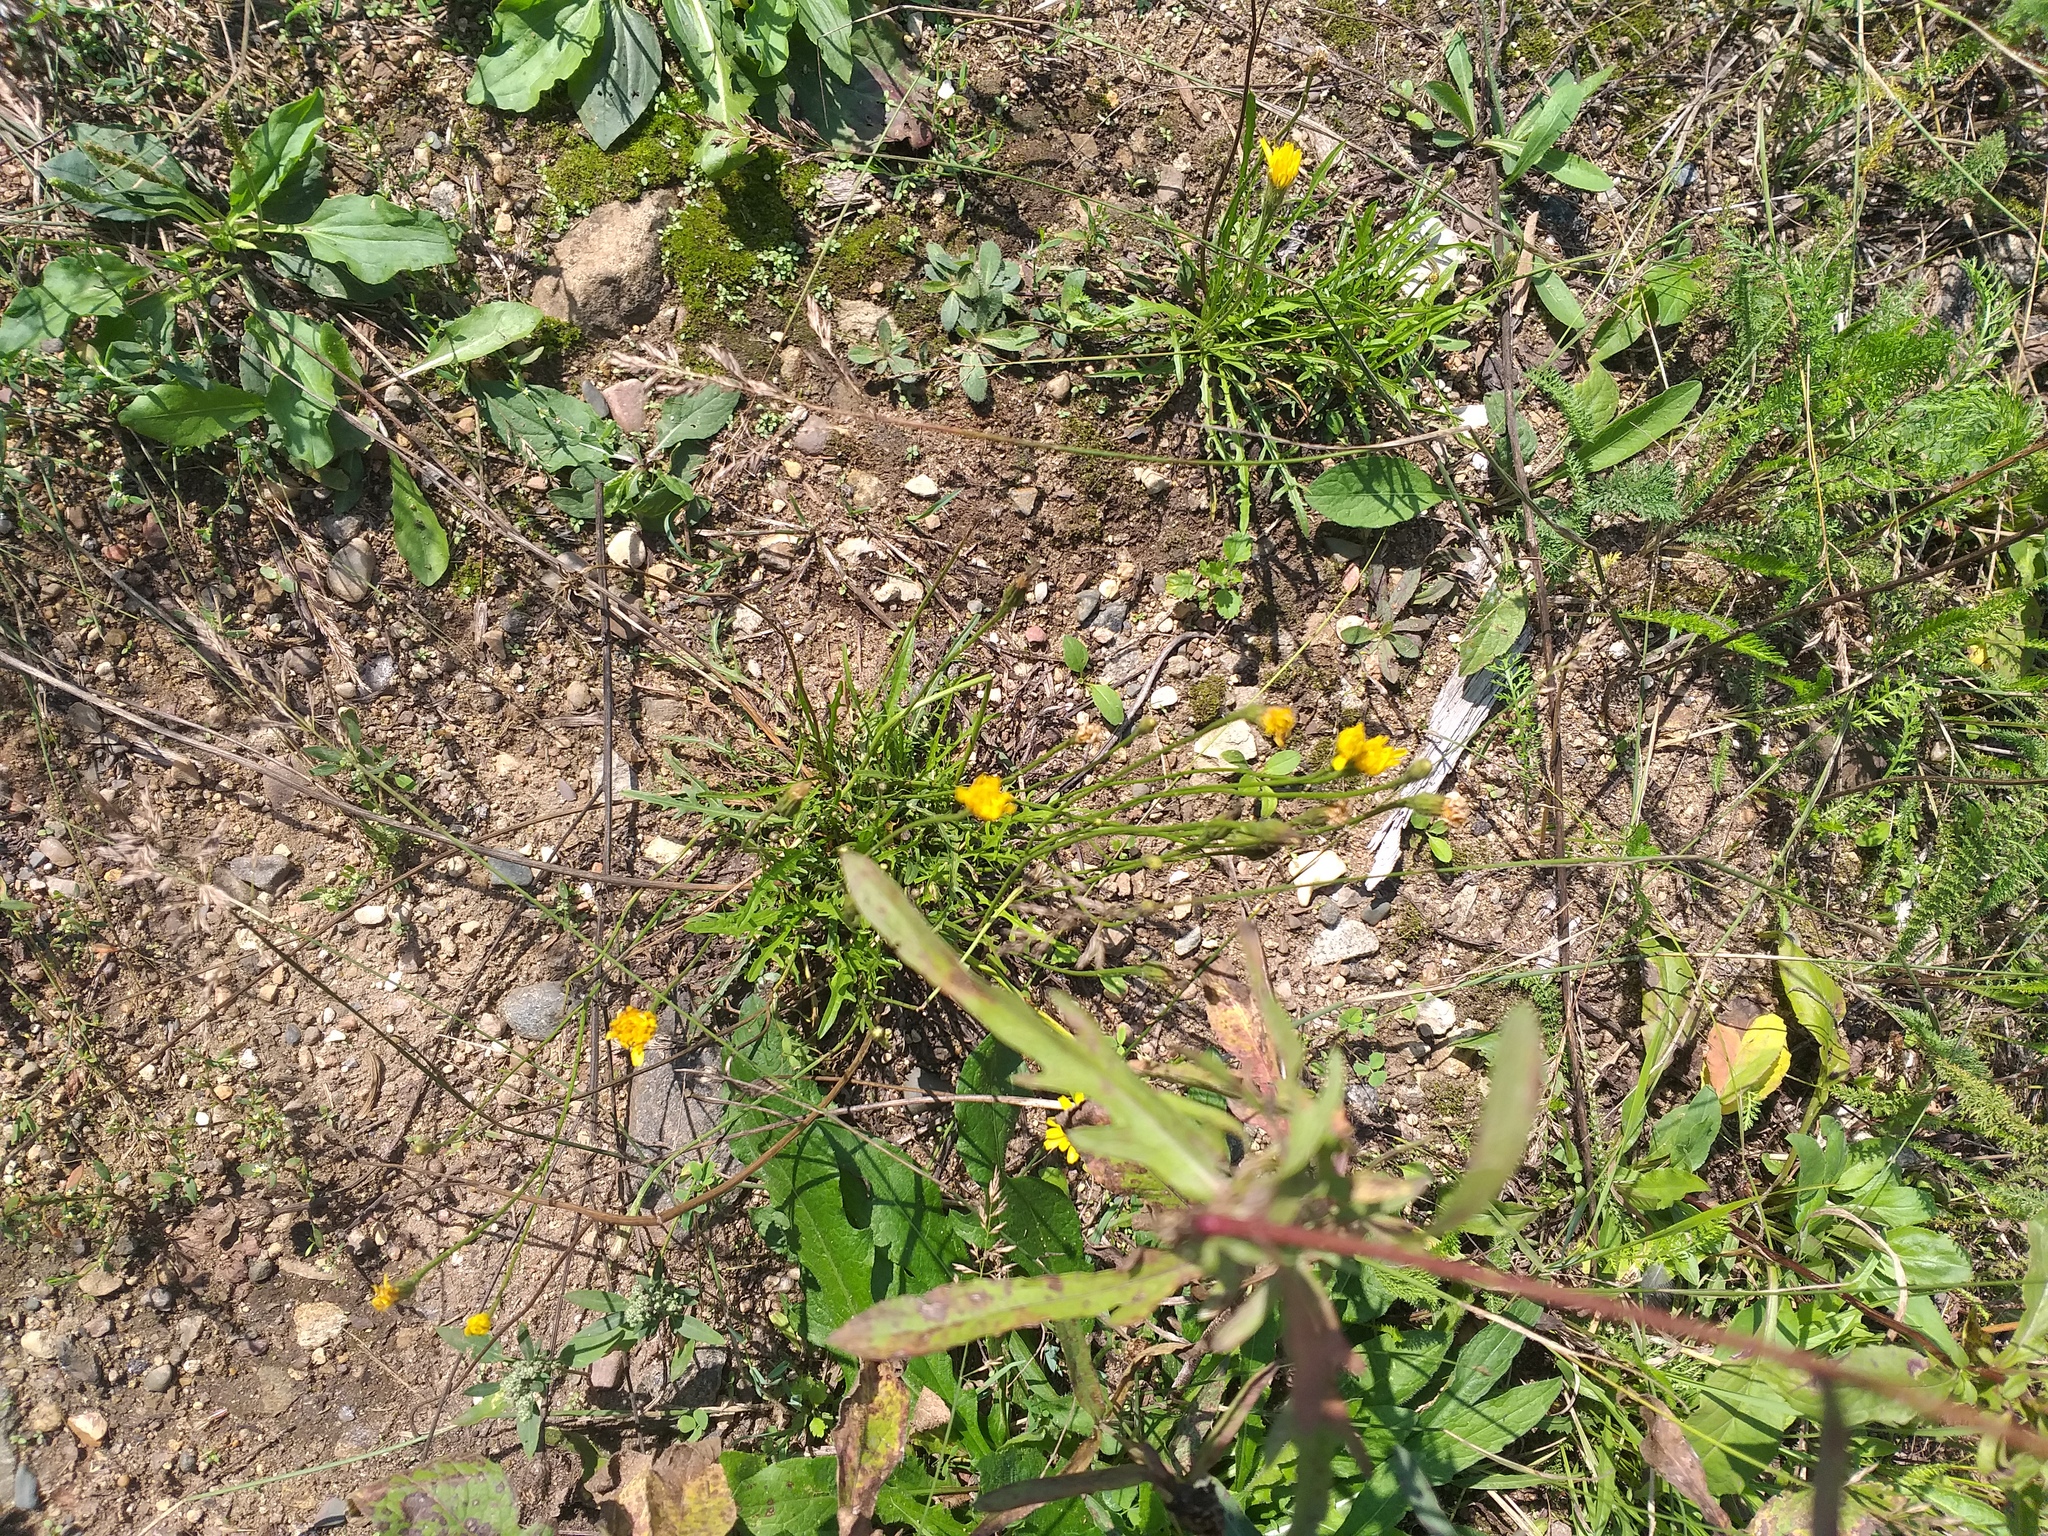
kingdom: Plantae
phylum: Tracheophyta
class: Magnoliopsida
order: Asterales
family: Asteraceae
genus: Scorzoneroides
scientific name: Scorzoneroides autumnalis
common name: Autumn hawkbit
